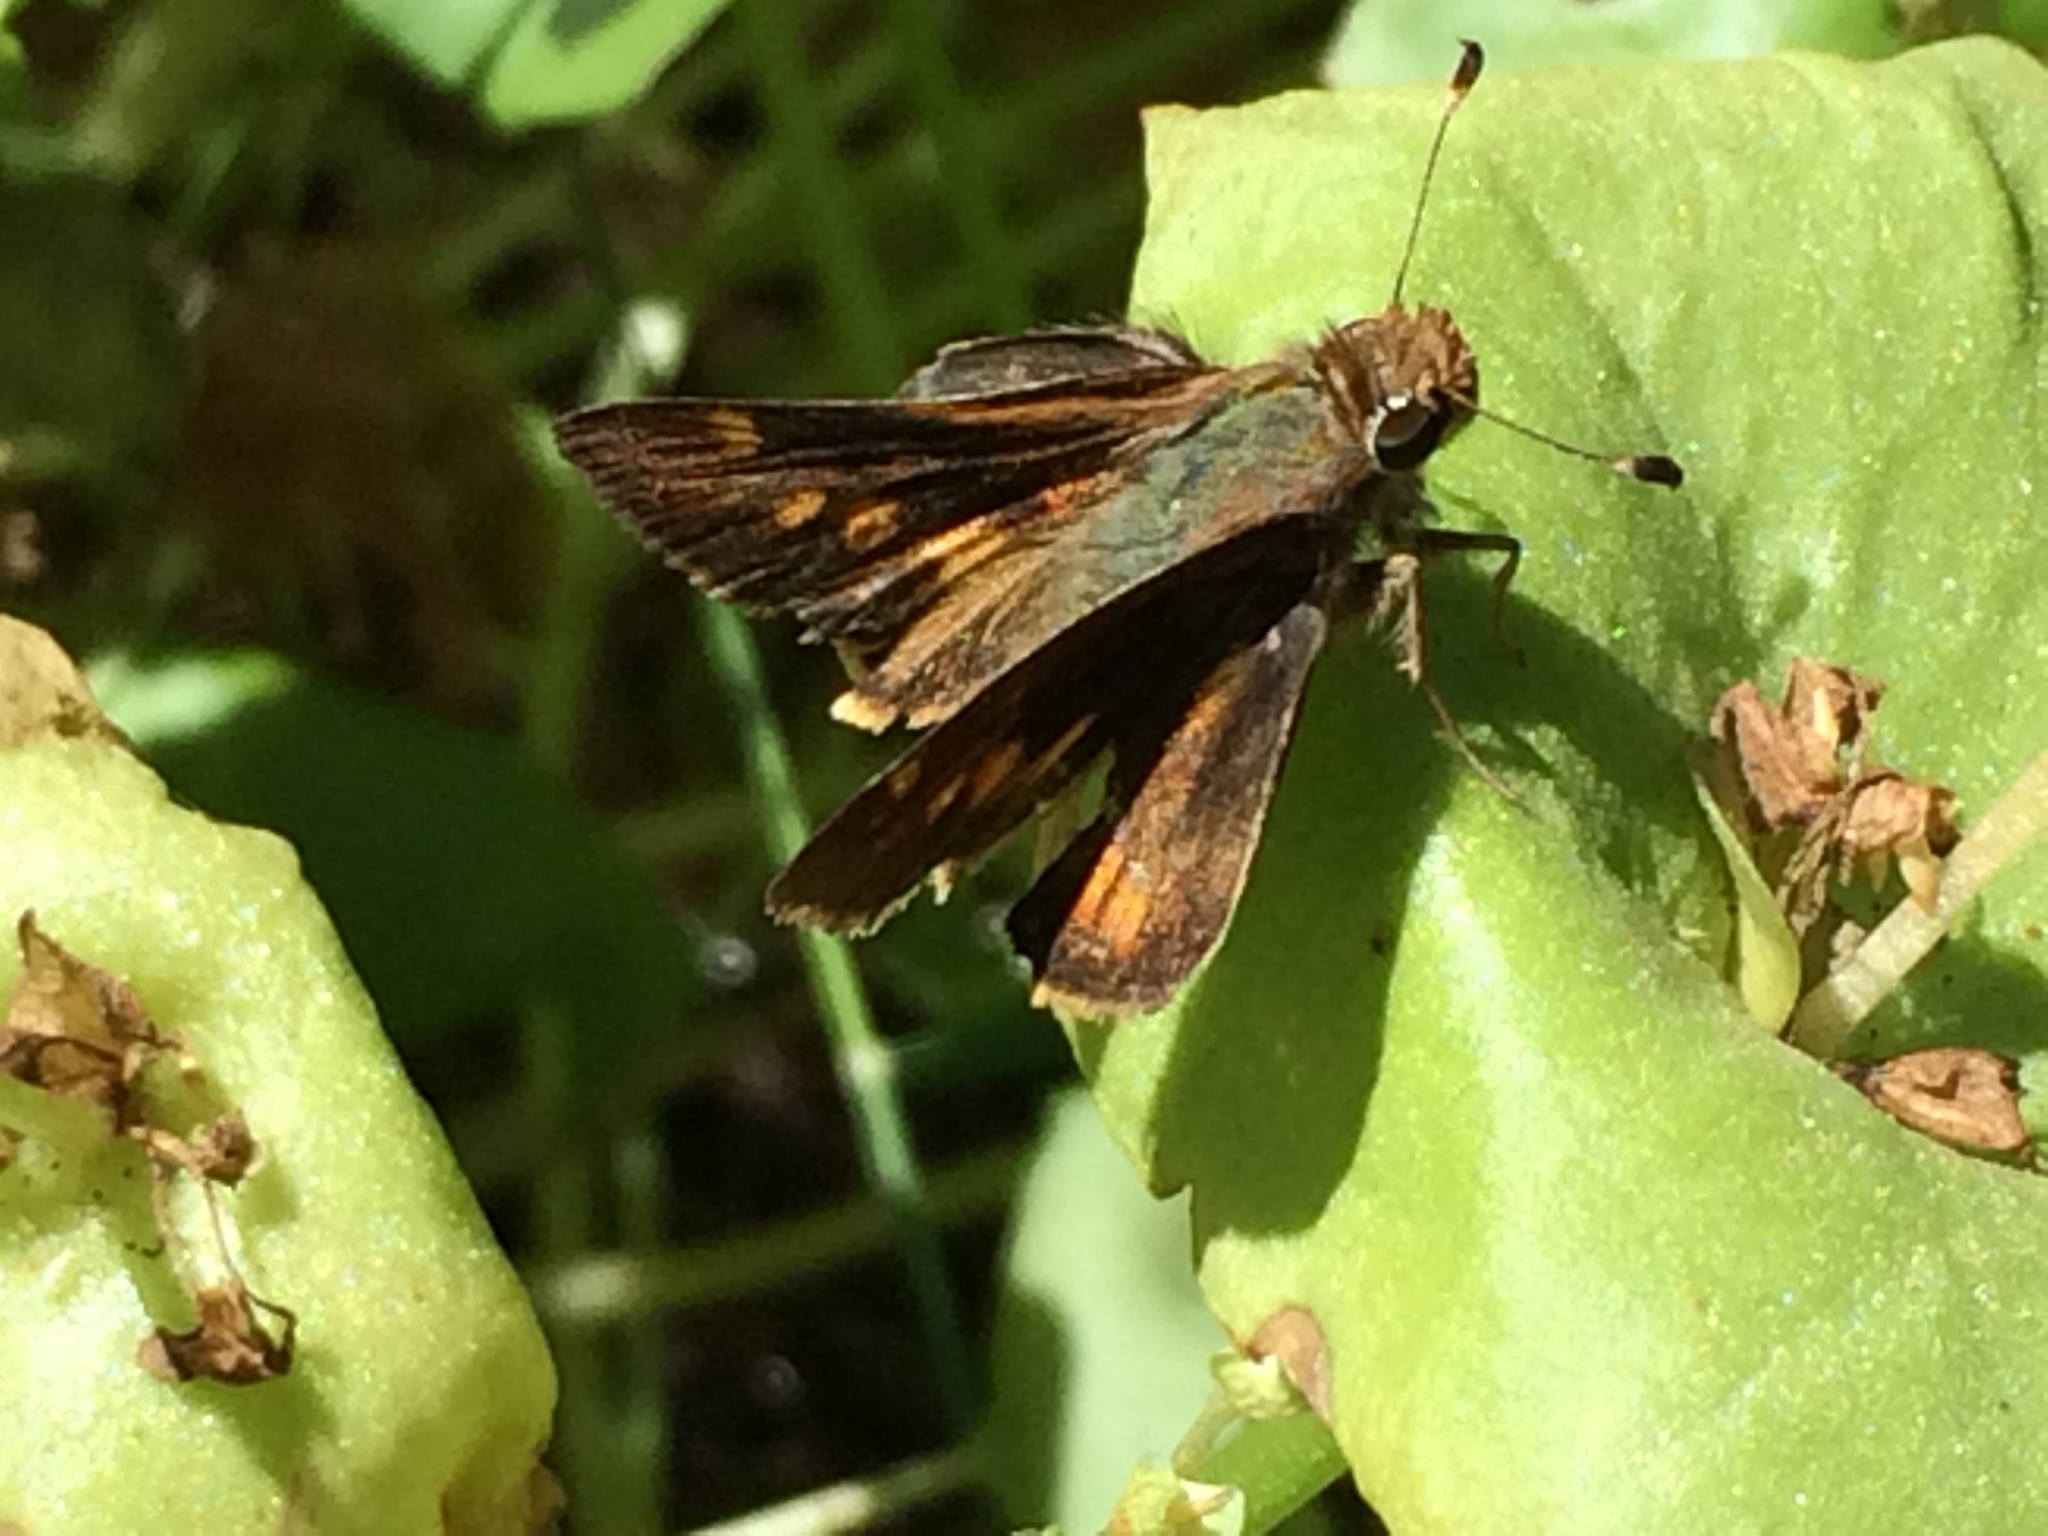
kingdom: Animalia
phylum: Arthropoda
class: Insecta
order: Lepidoptera
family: Hesperiidae
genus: Lon
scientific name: Lon melane
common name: Umber skipper
